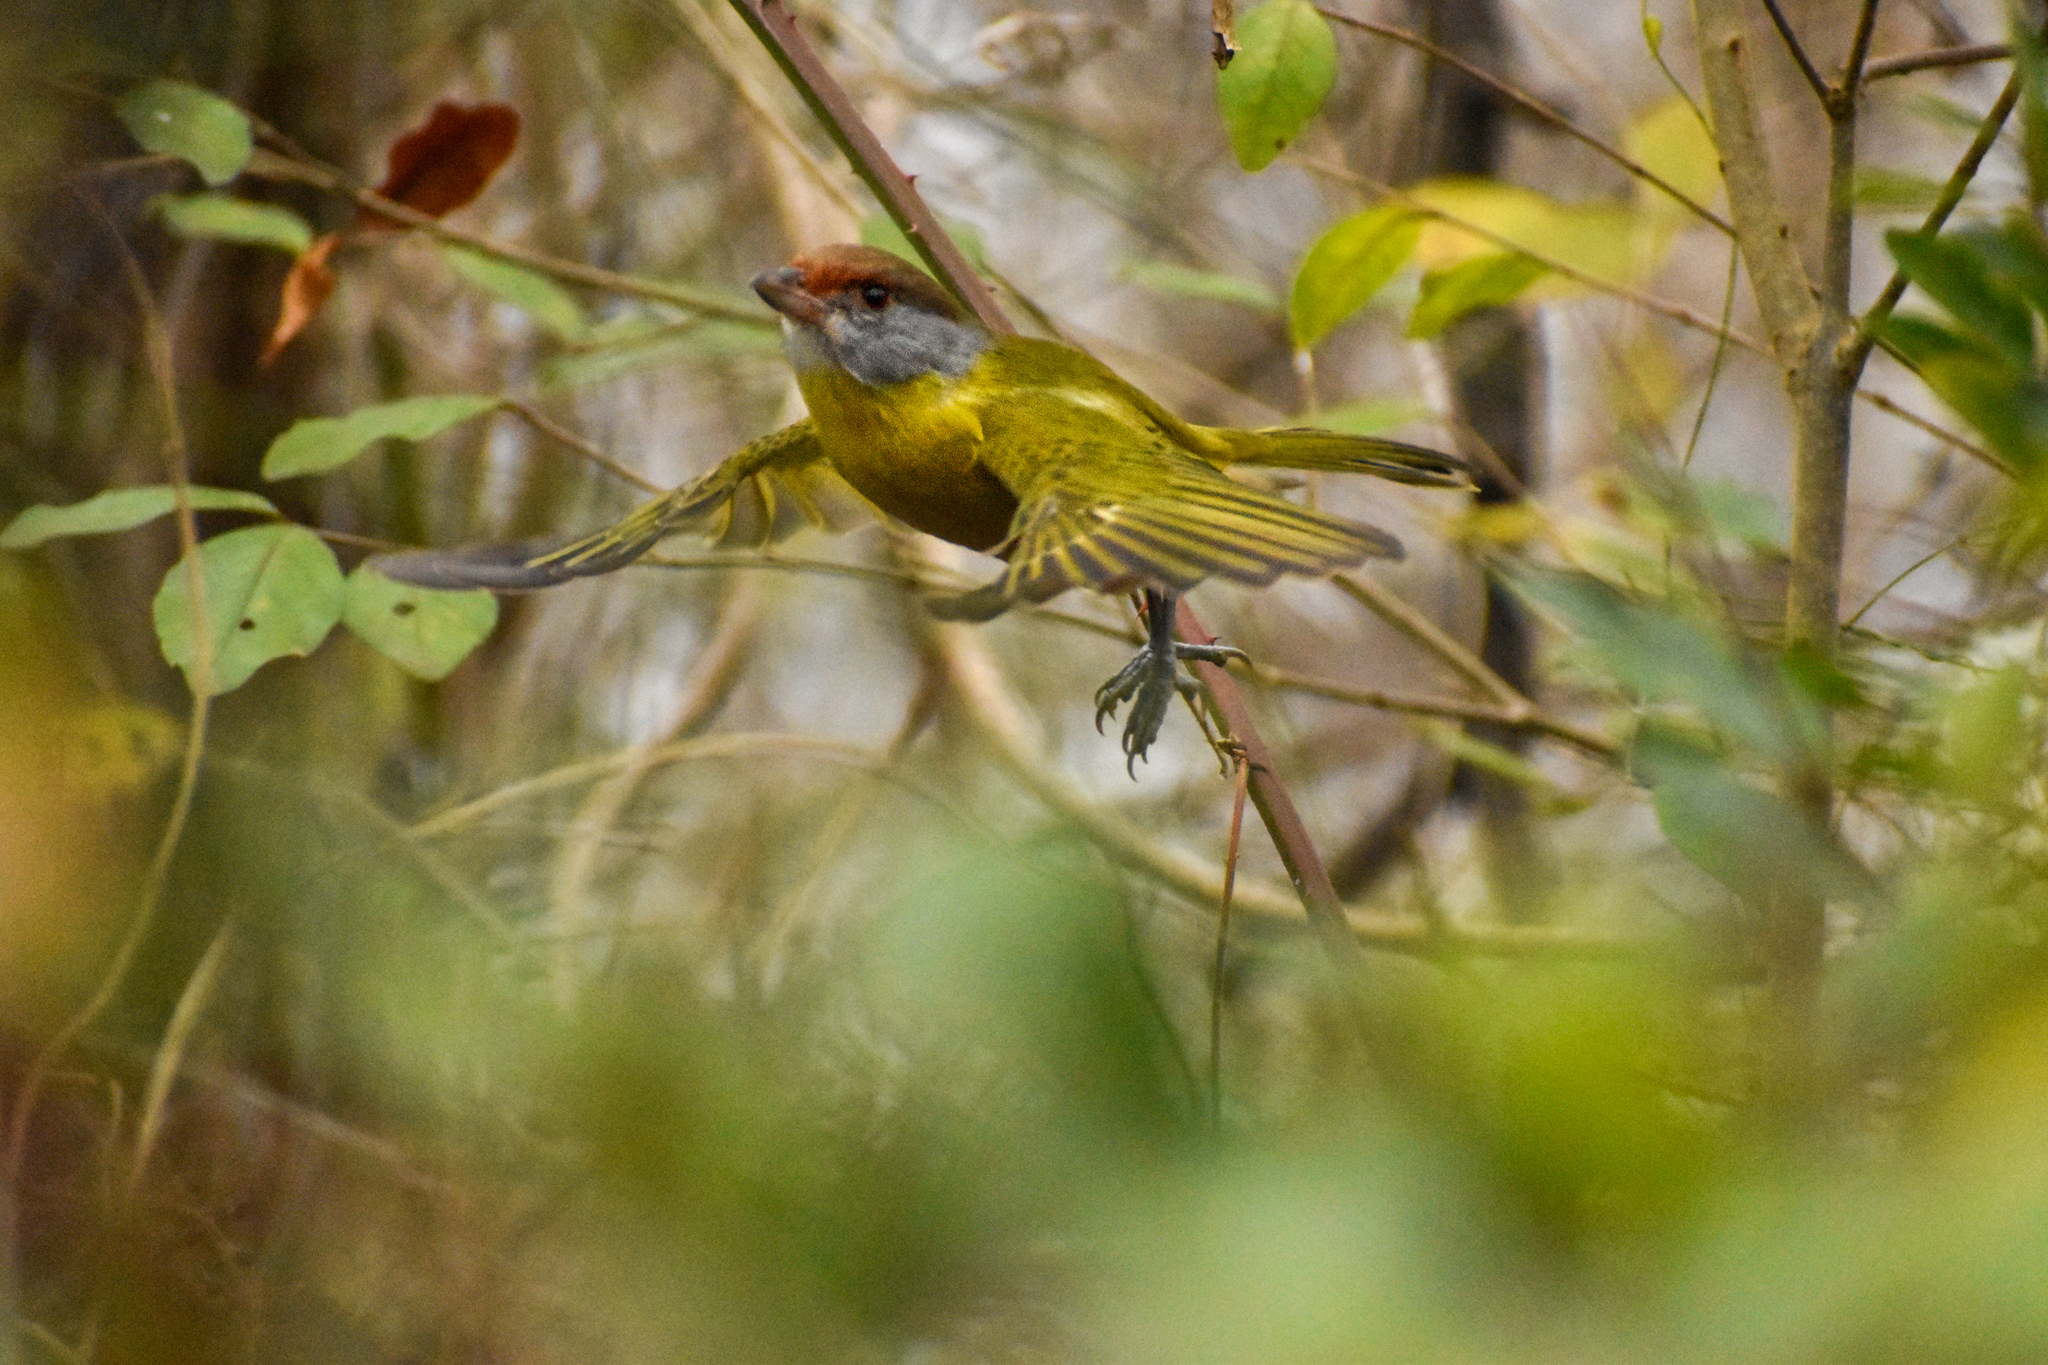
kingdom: Animalia
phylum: Chordata
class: Aves
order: Passeriformes
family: Vireonidae
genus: Cyclarhis
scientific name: Cyclarhis gujanensis
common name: Rufous-browed peppershrike
